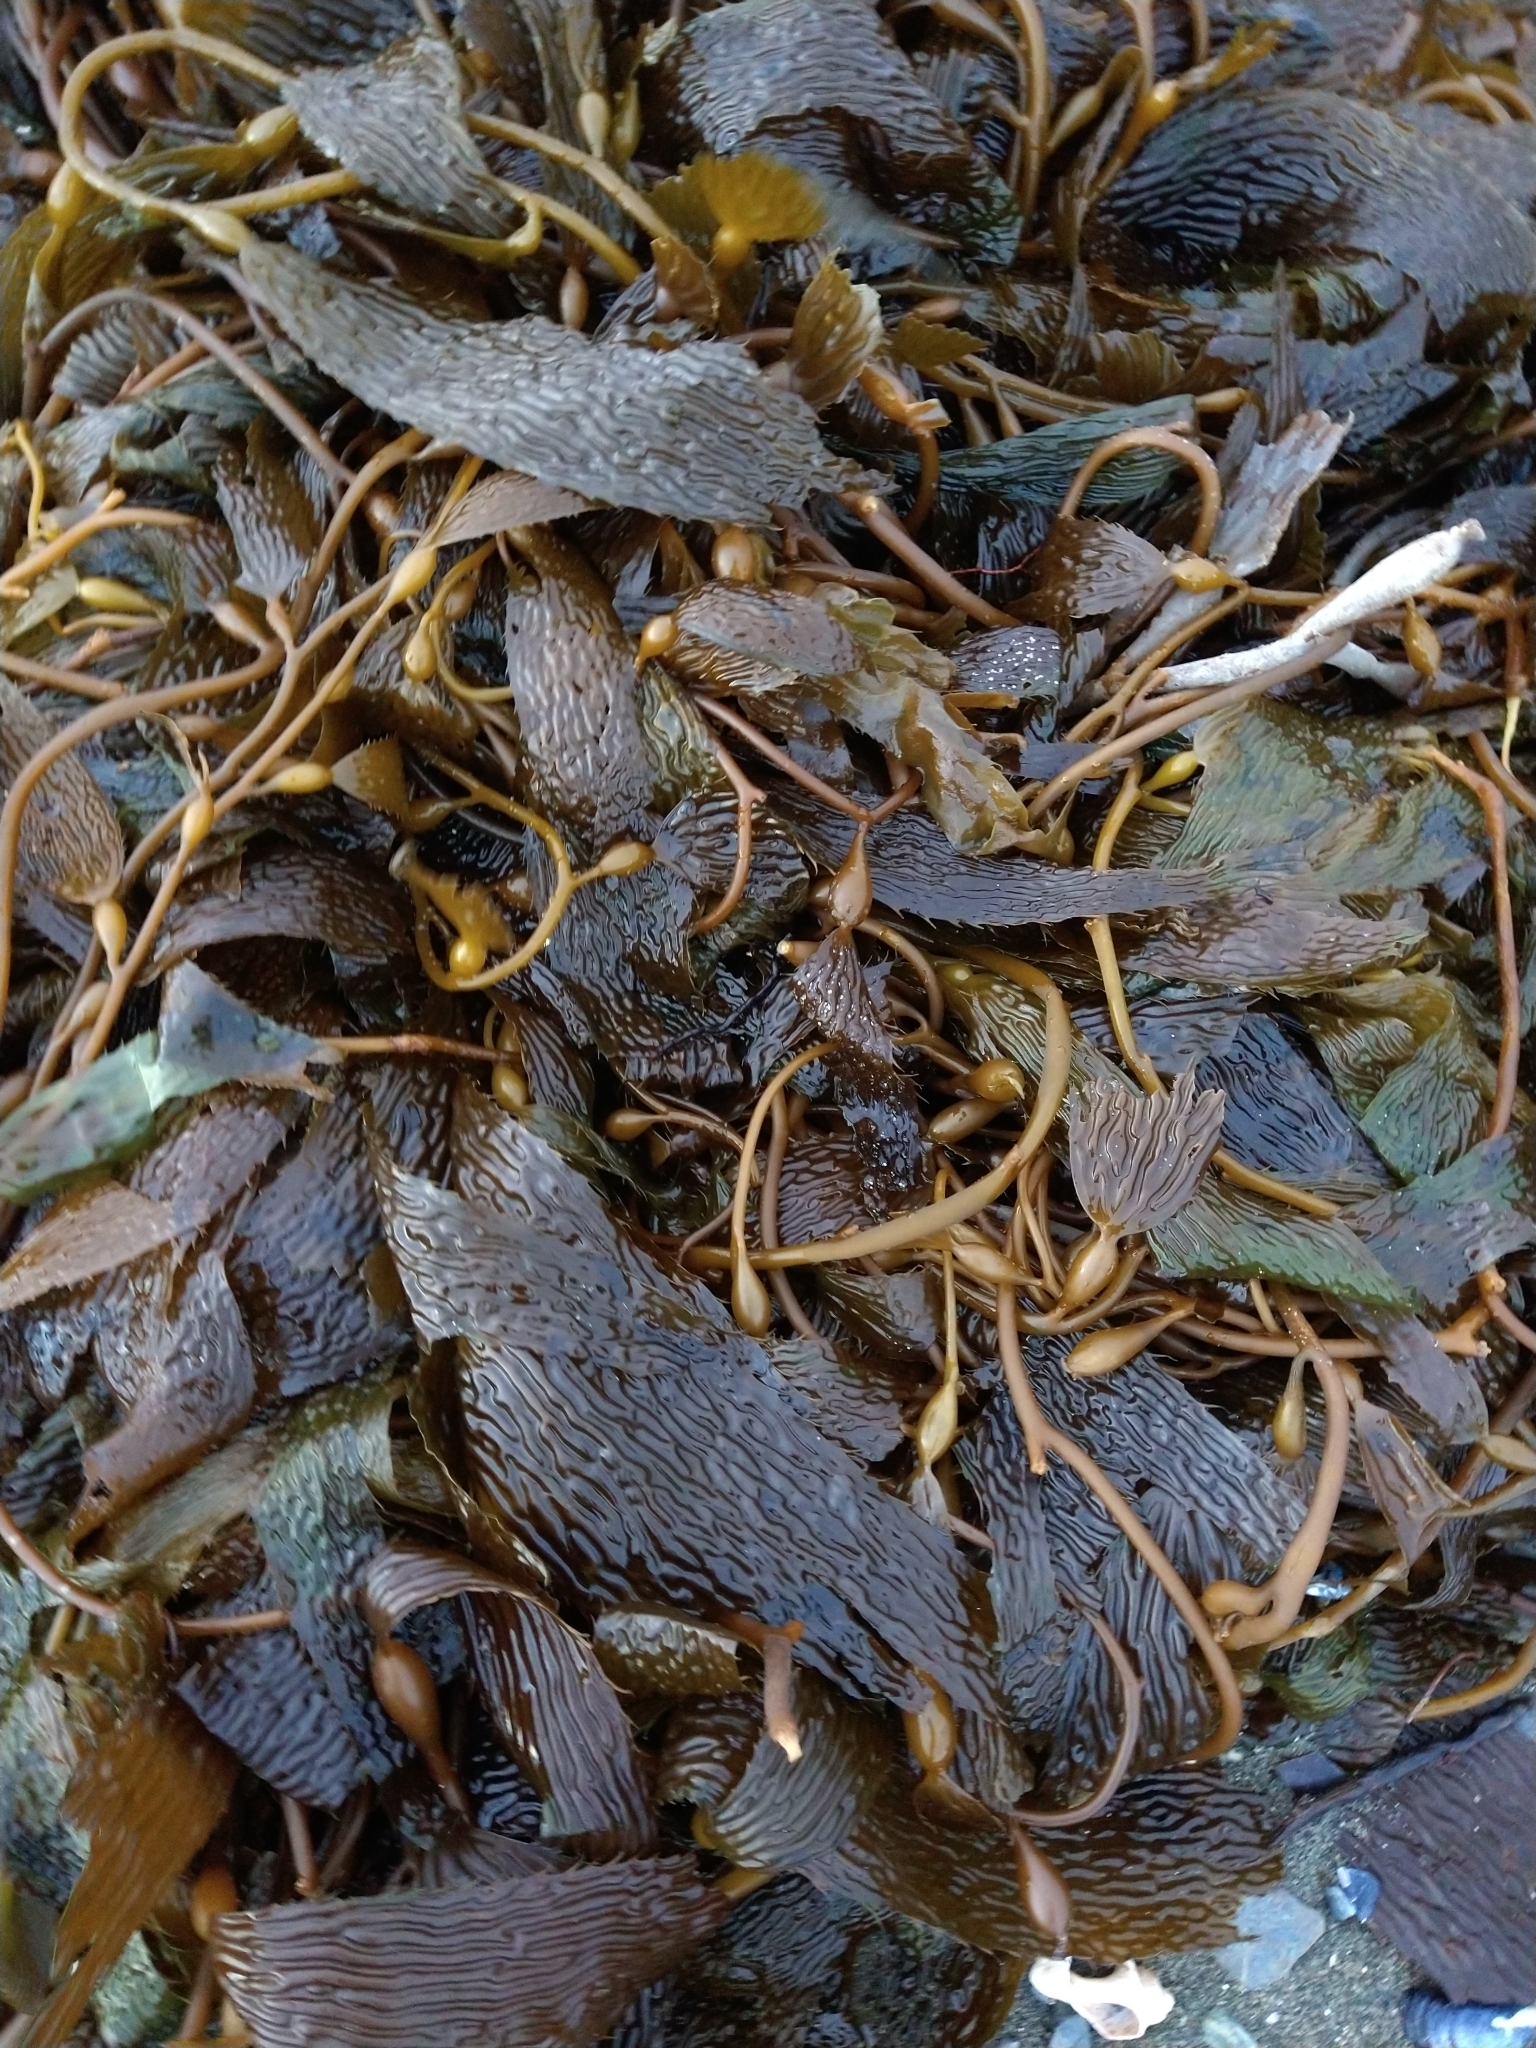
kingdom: Chromista
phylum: Ochrophyta
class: Phaeophyceae
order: Laminariales
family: Laminariaceae
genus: Macrocystis
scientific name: Macrocystis pyrifera
